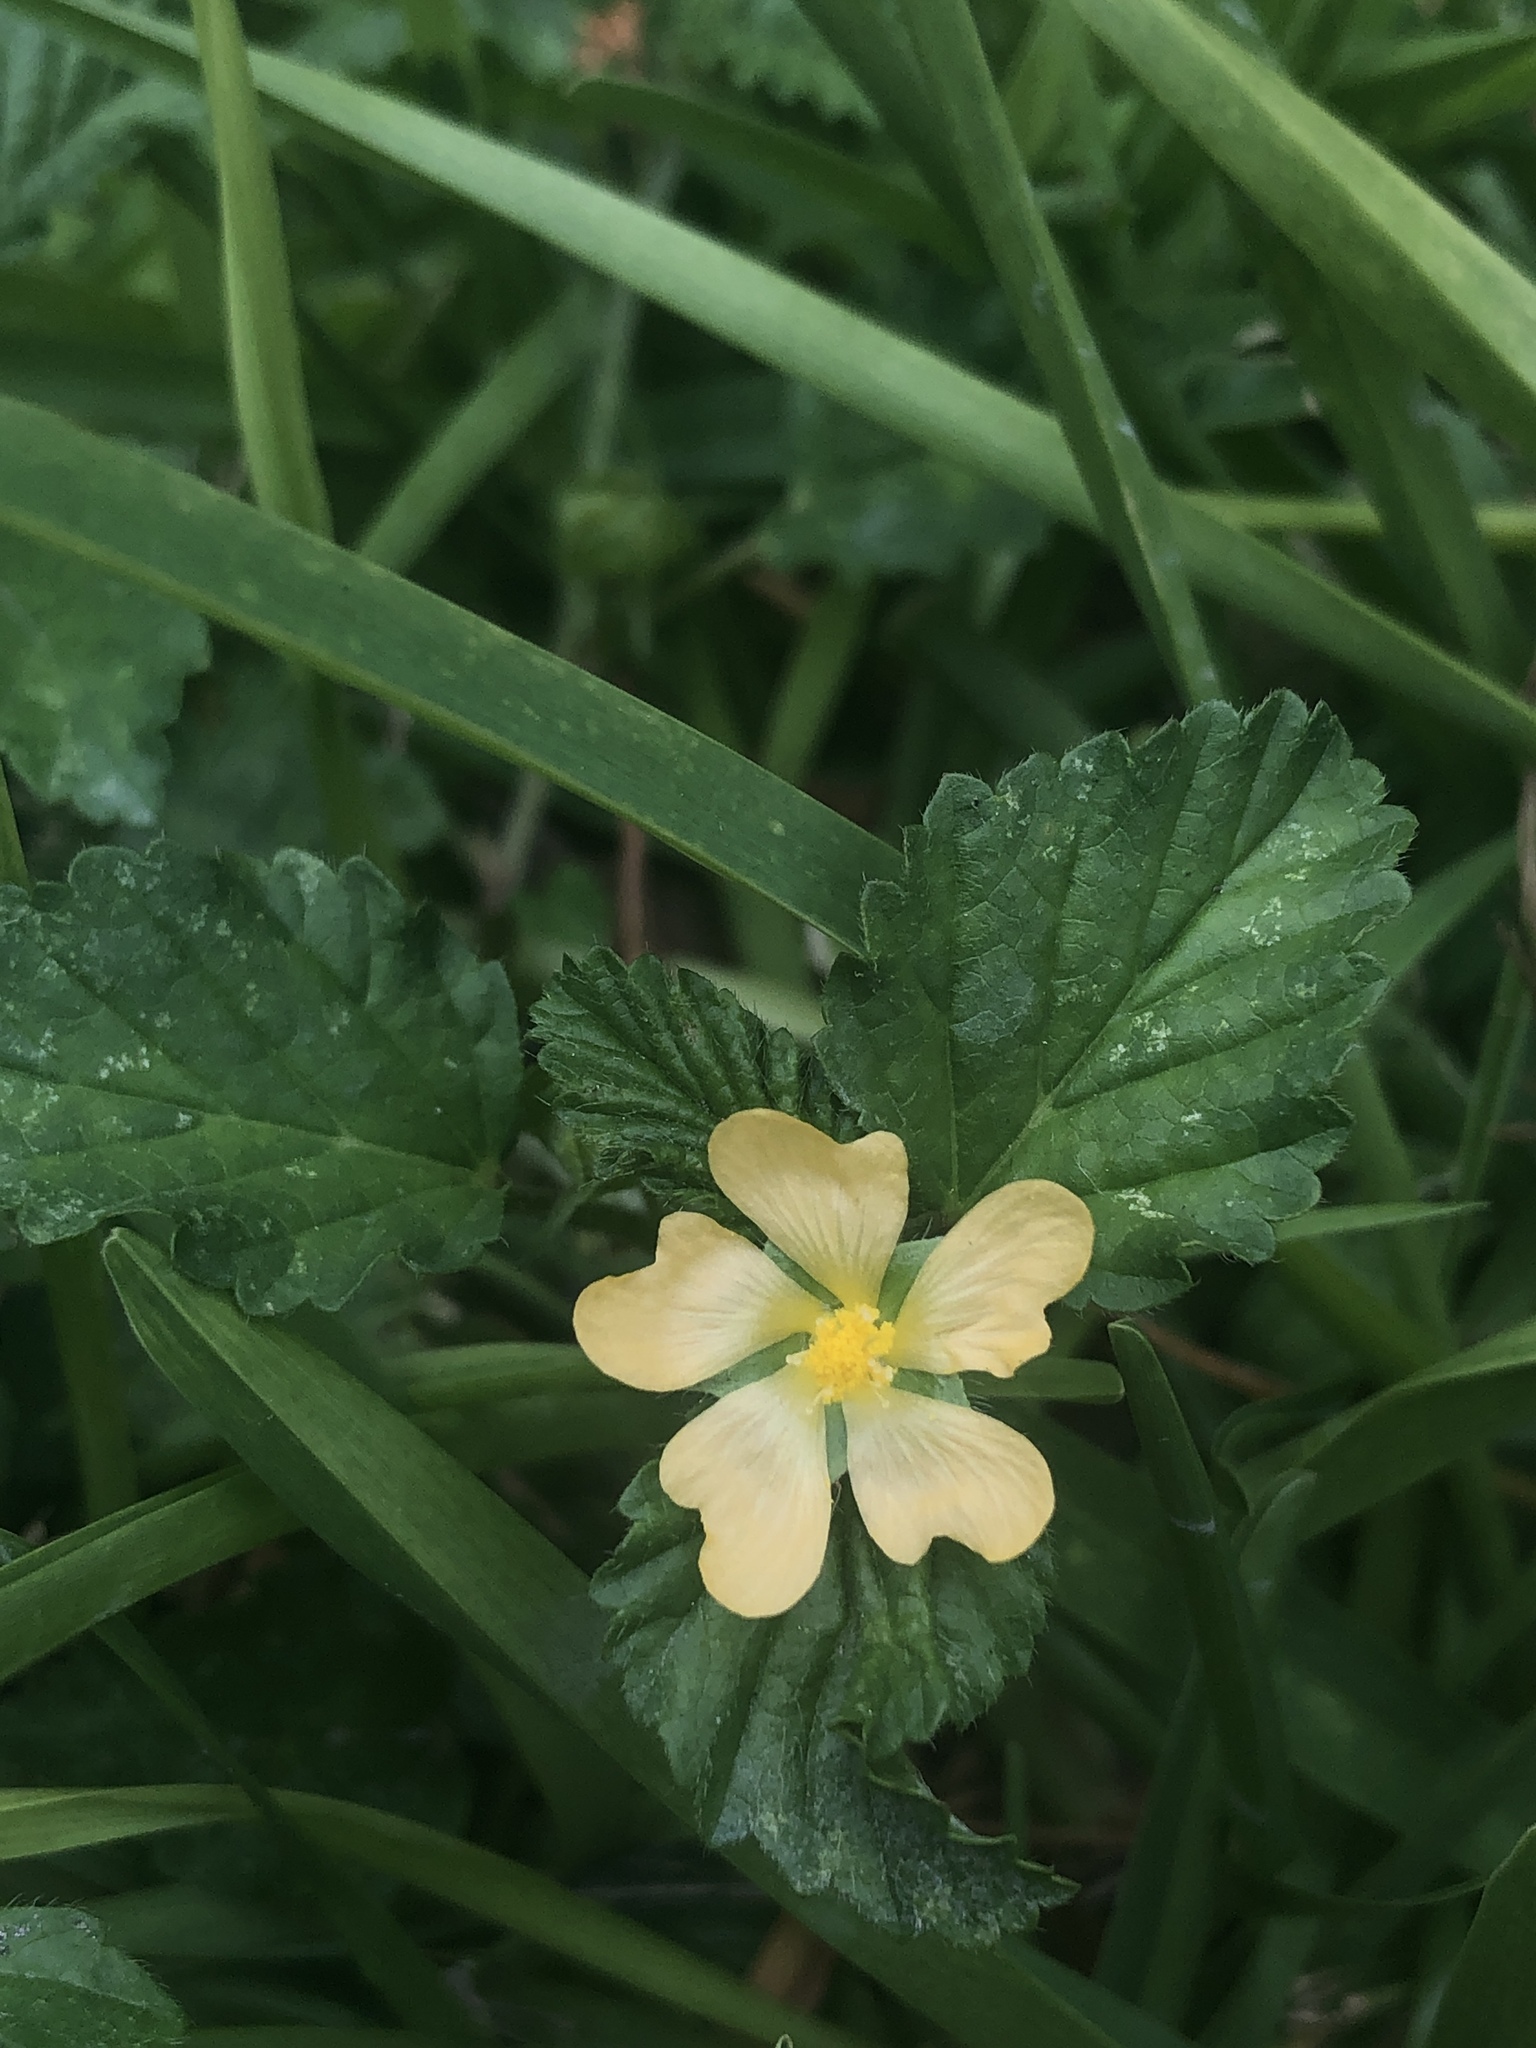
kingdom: Plantae
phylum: Tracheophyta
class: Magnoliopsida
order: Malvales
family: Malvaceae
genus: Malvastrum
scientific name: Malvastrum coromandelianum
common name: Threelobe false mallow
